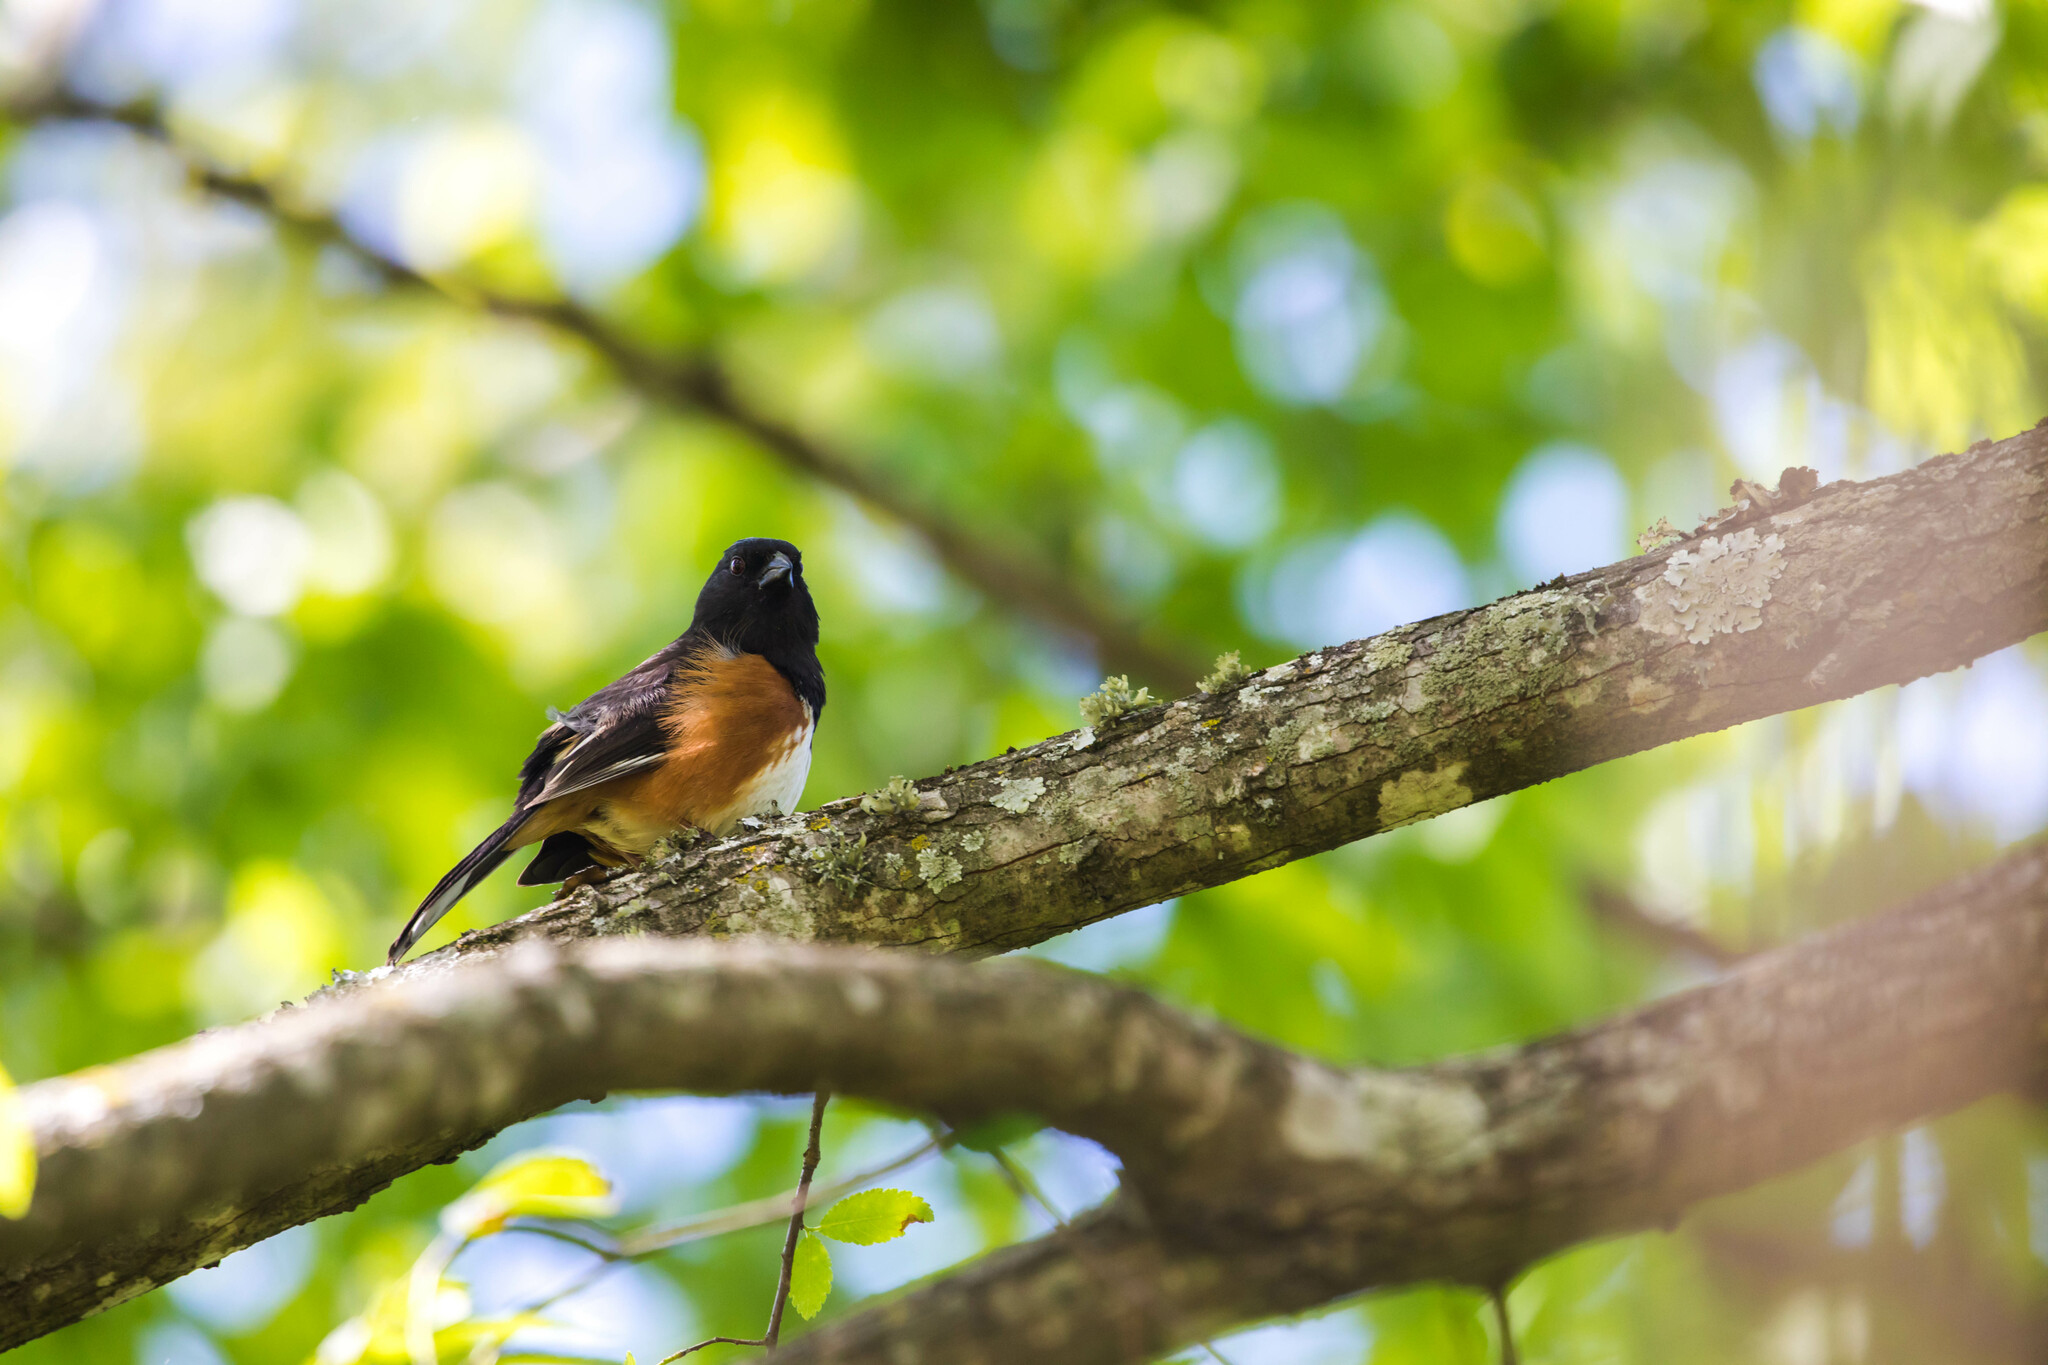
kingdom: Animalia
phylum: Chordata
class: Aves
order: Passeriformes
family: Passerellidae
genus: Pipilo
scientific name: Pipilo erythrophthalmus
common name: Eastern towhee
